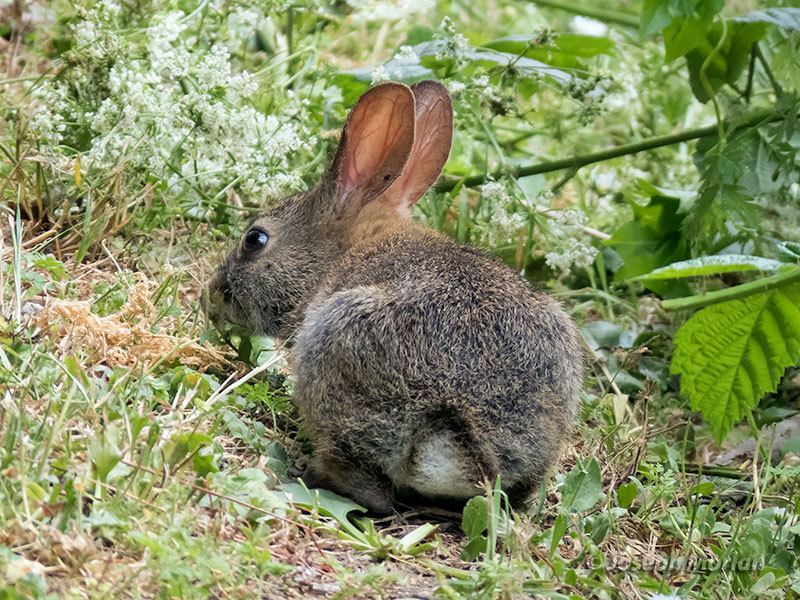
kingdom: Animalia
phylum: Chordata
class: Mammalia
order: Lagomorpha
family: Leporidae
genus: Sylvilagus
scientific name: Sylvilagus bachmani
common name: Brush rabbit
